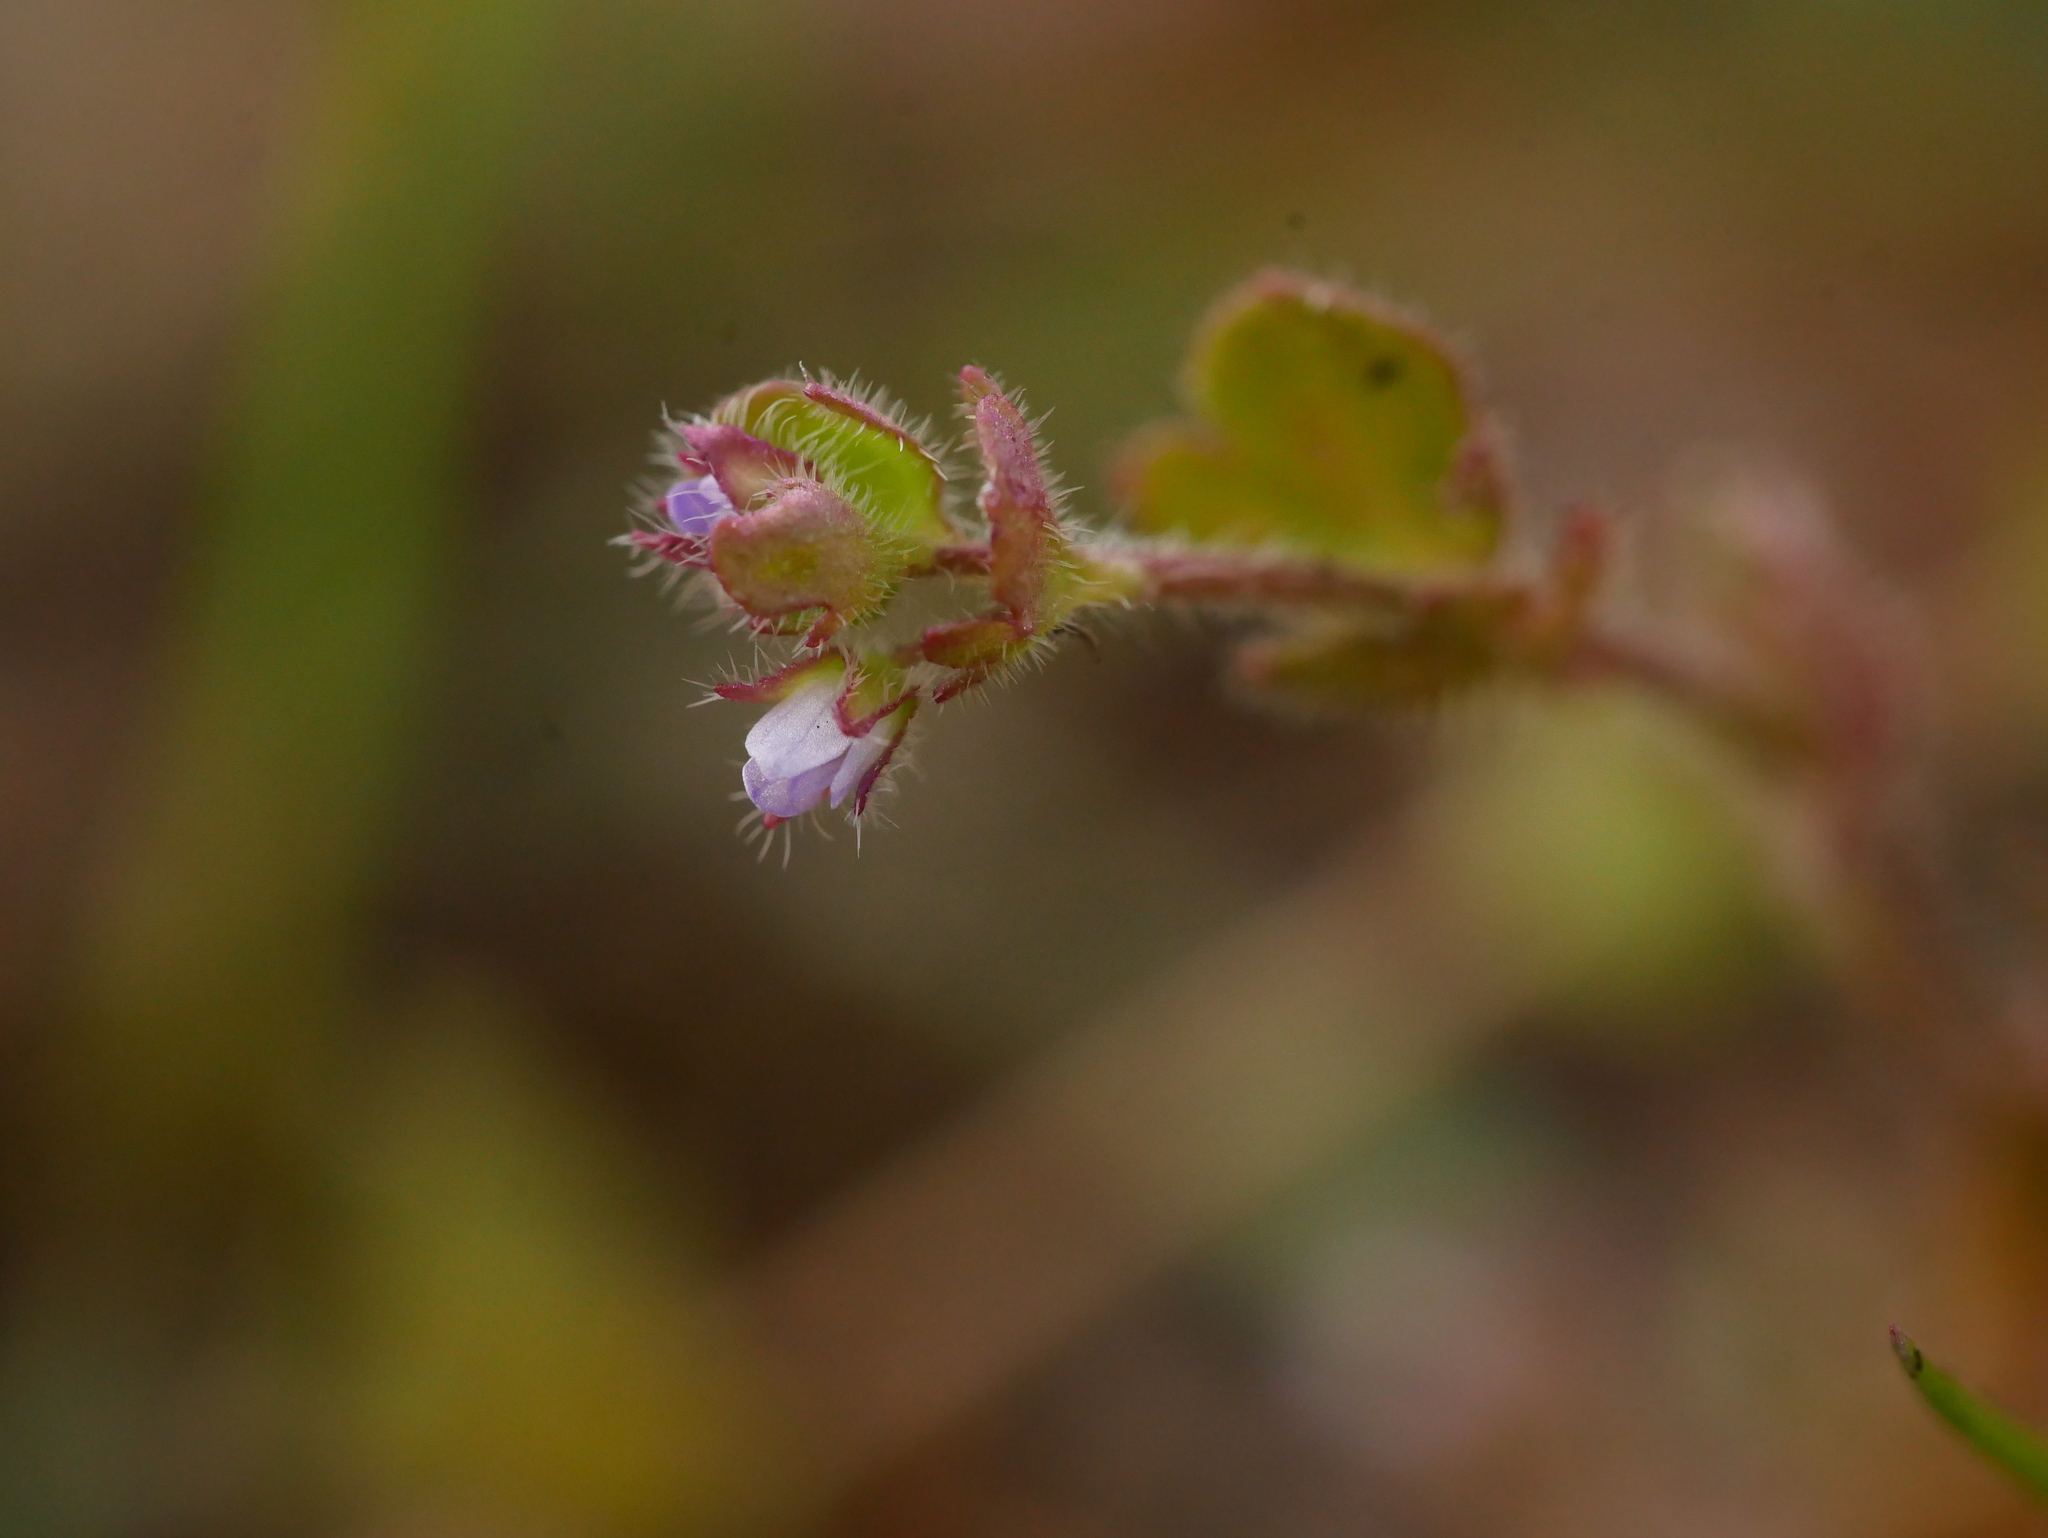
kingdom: Plantae
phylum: Tracheophyta
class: Magnoliopsida
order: Lamiales
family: Plantaginaceae
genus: Veronica
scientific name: Veronica sublobata
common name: False ivy-leaved speedwell
